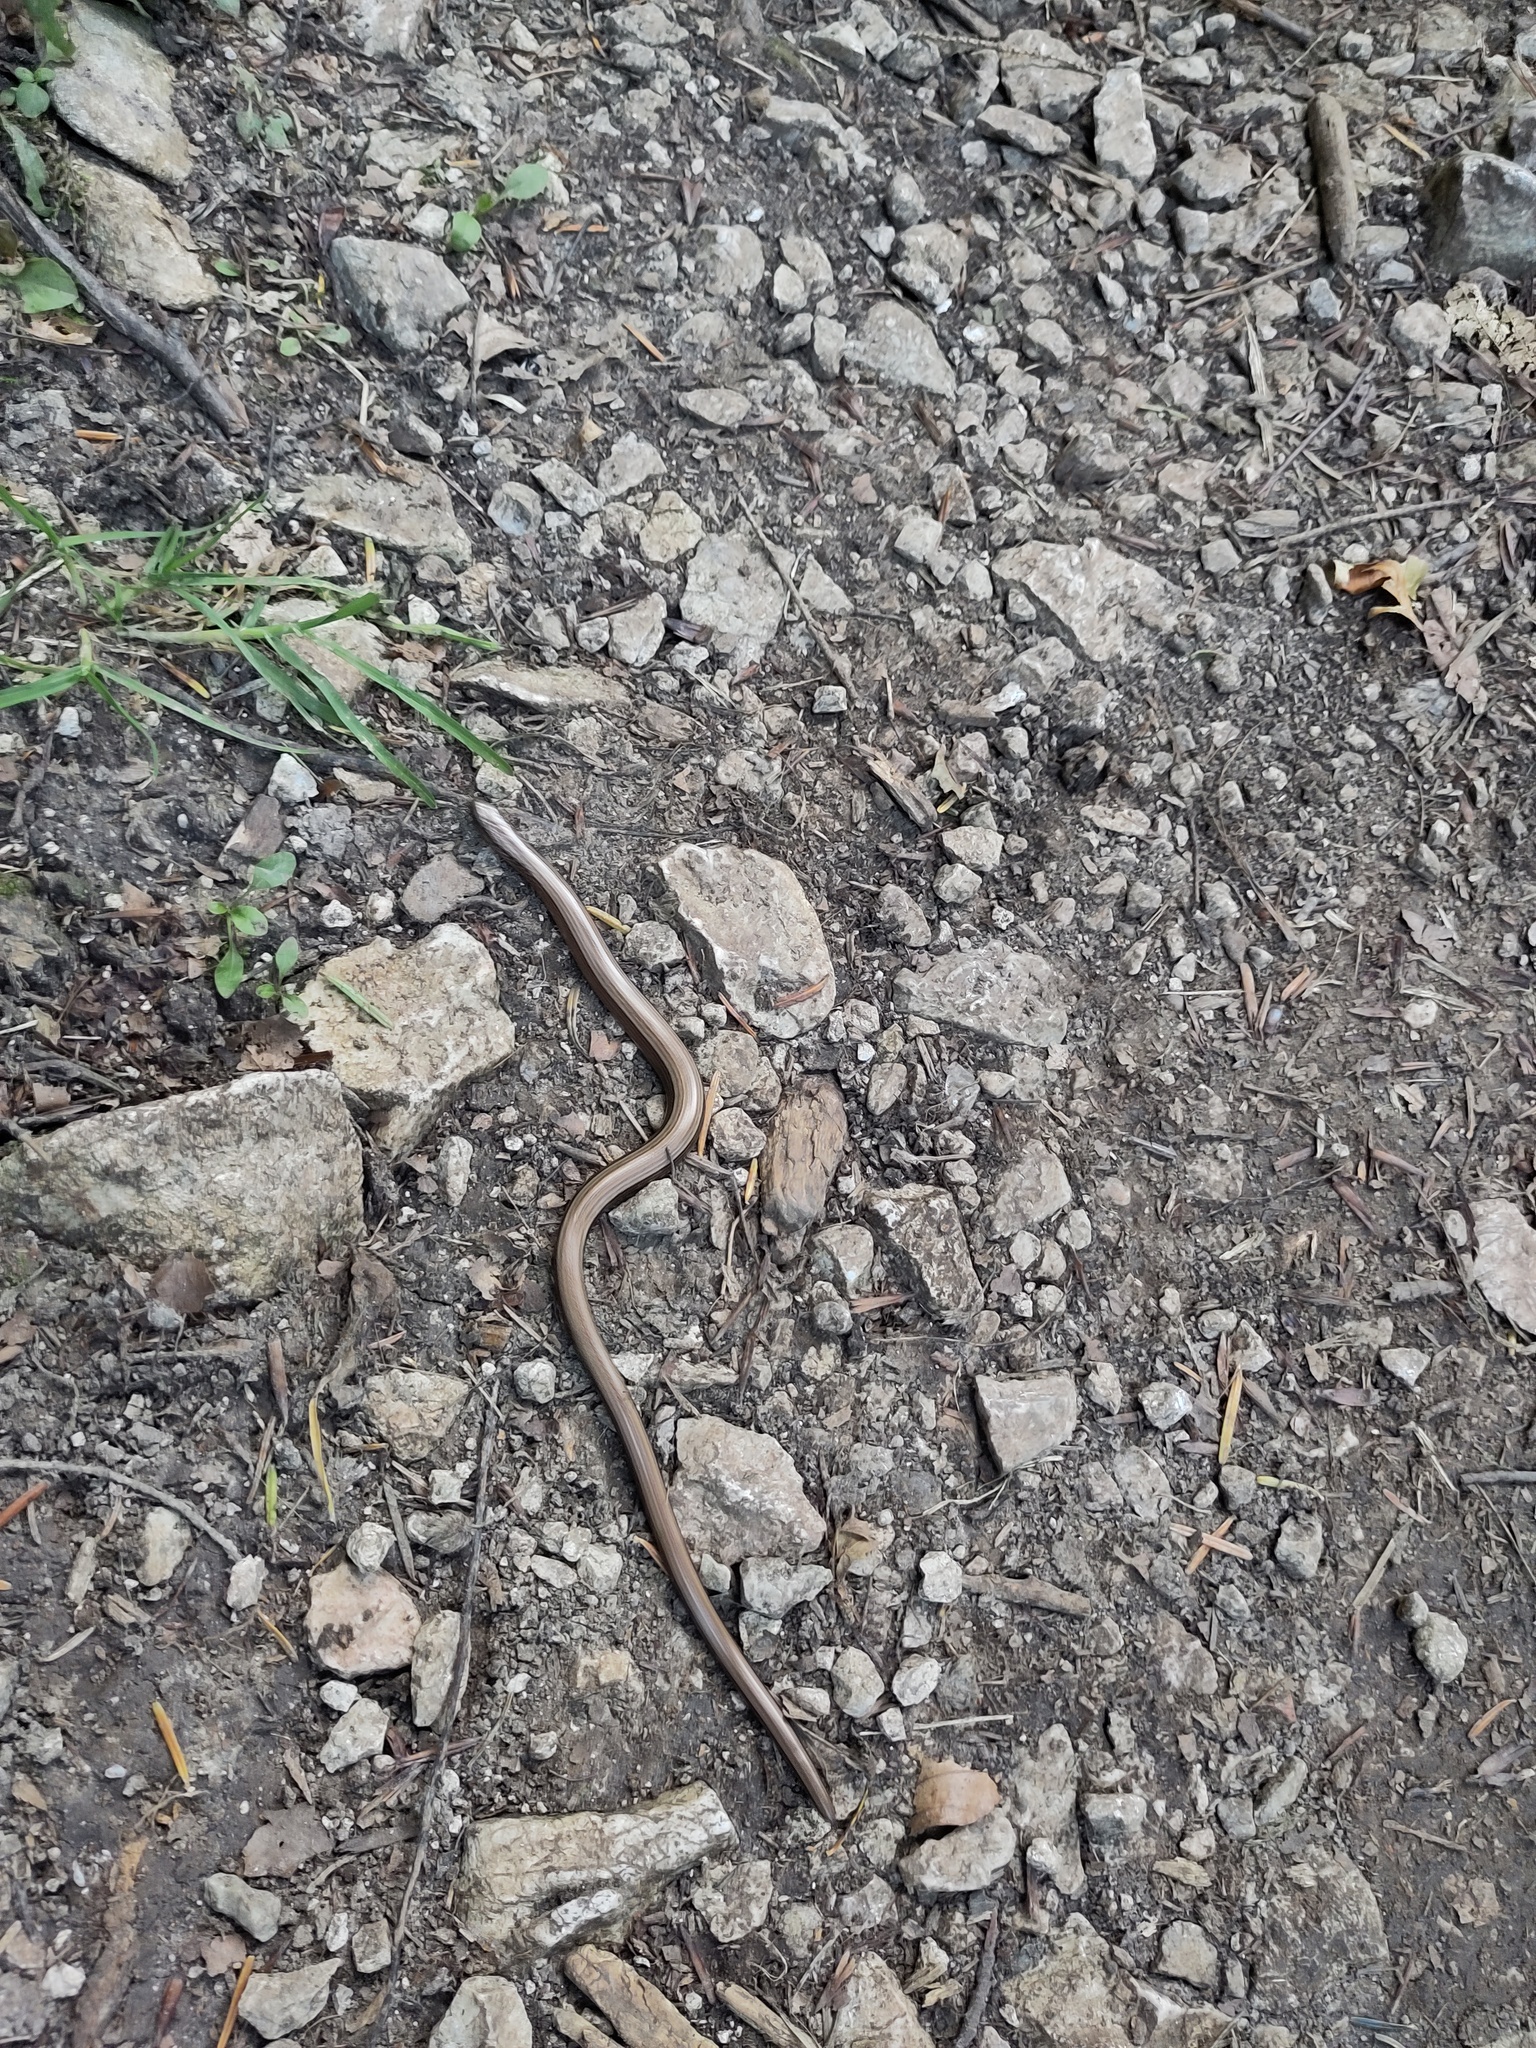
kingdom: Animalia
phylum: Chordata
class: Squamata
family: Anguidae
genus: Anguis
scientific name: Anguis fragilis
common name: Slow worm
